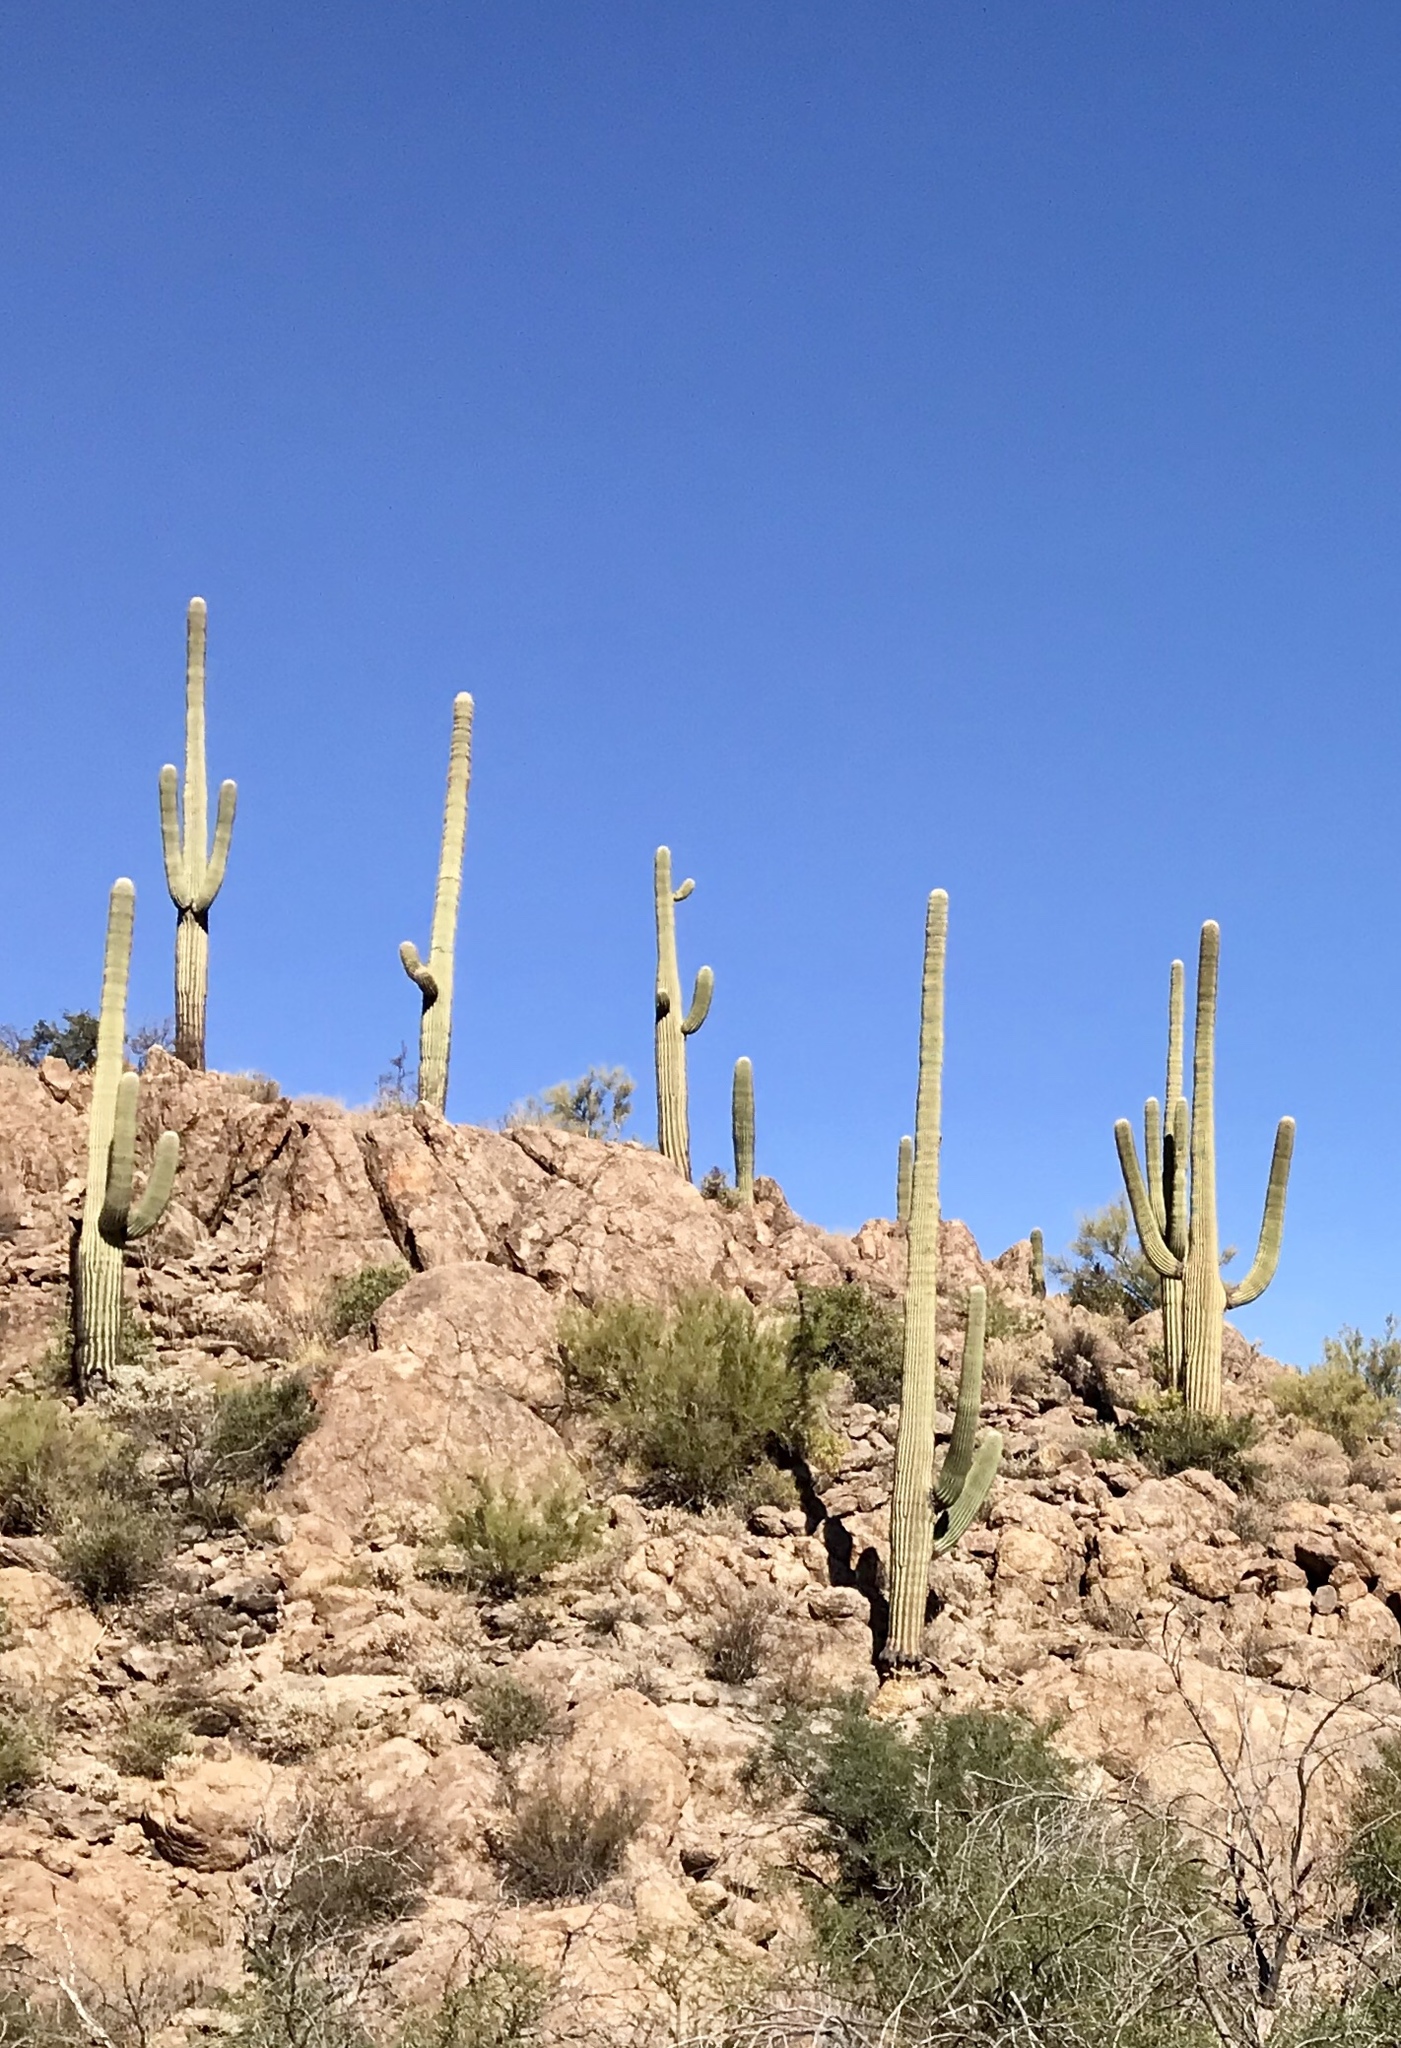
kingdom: Plantae
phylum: Tracheophyta
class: Magnoliopsida
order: Caryophyllales
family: Cactaceae
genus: Carnegiea
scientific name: Carnegiea gigantea
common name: Saguaro
